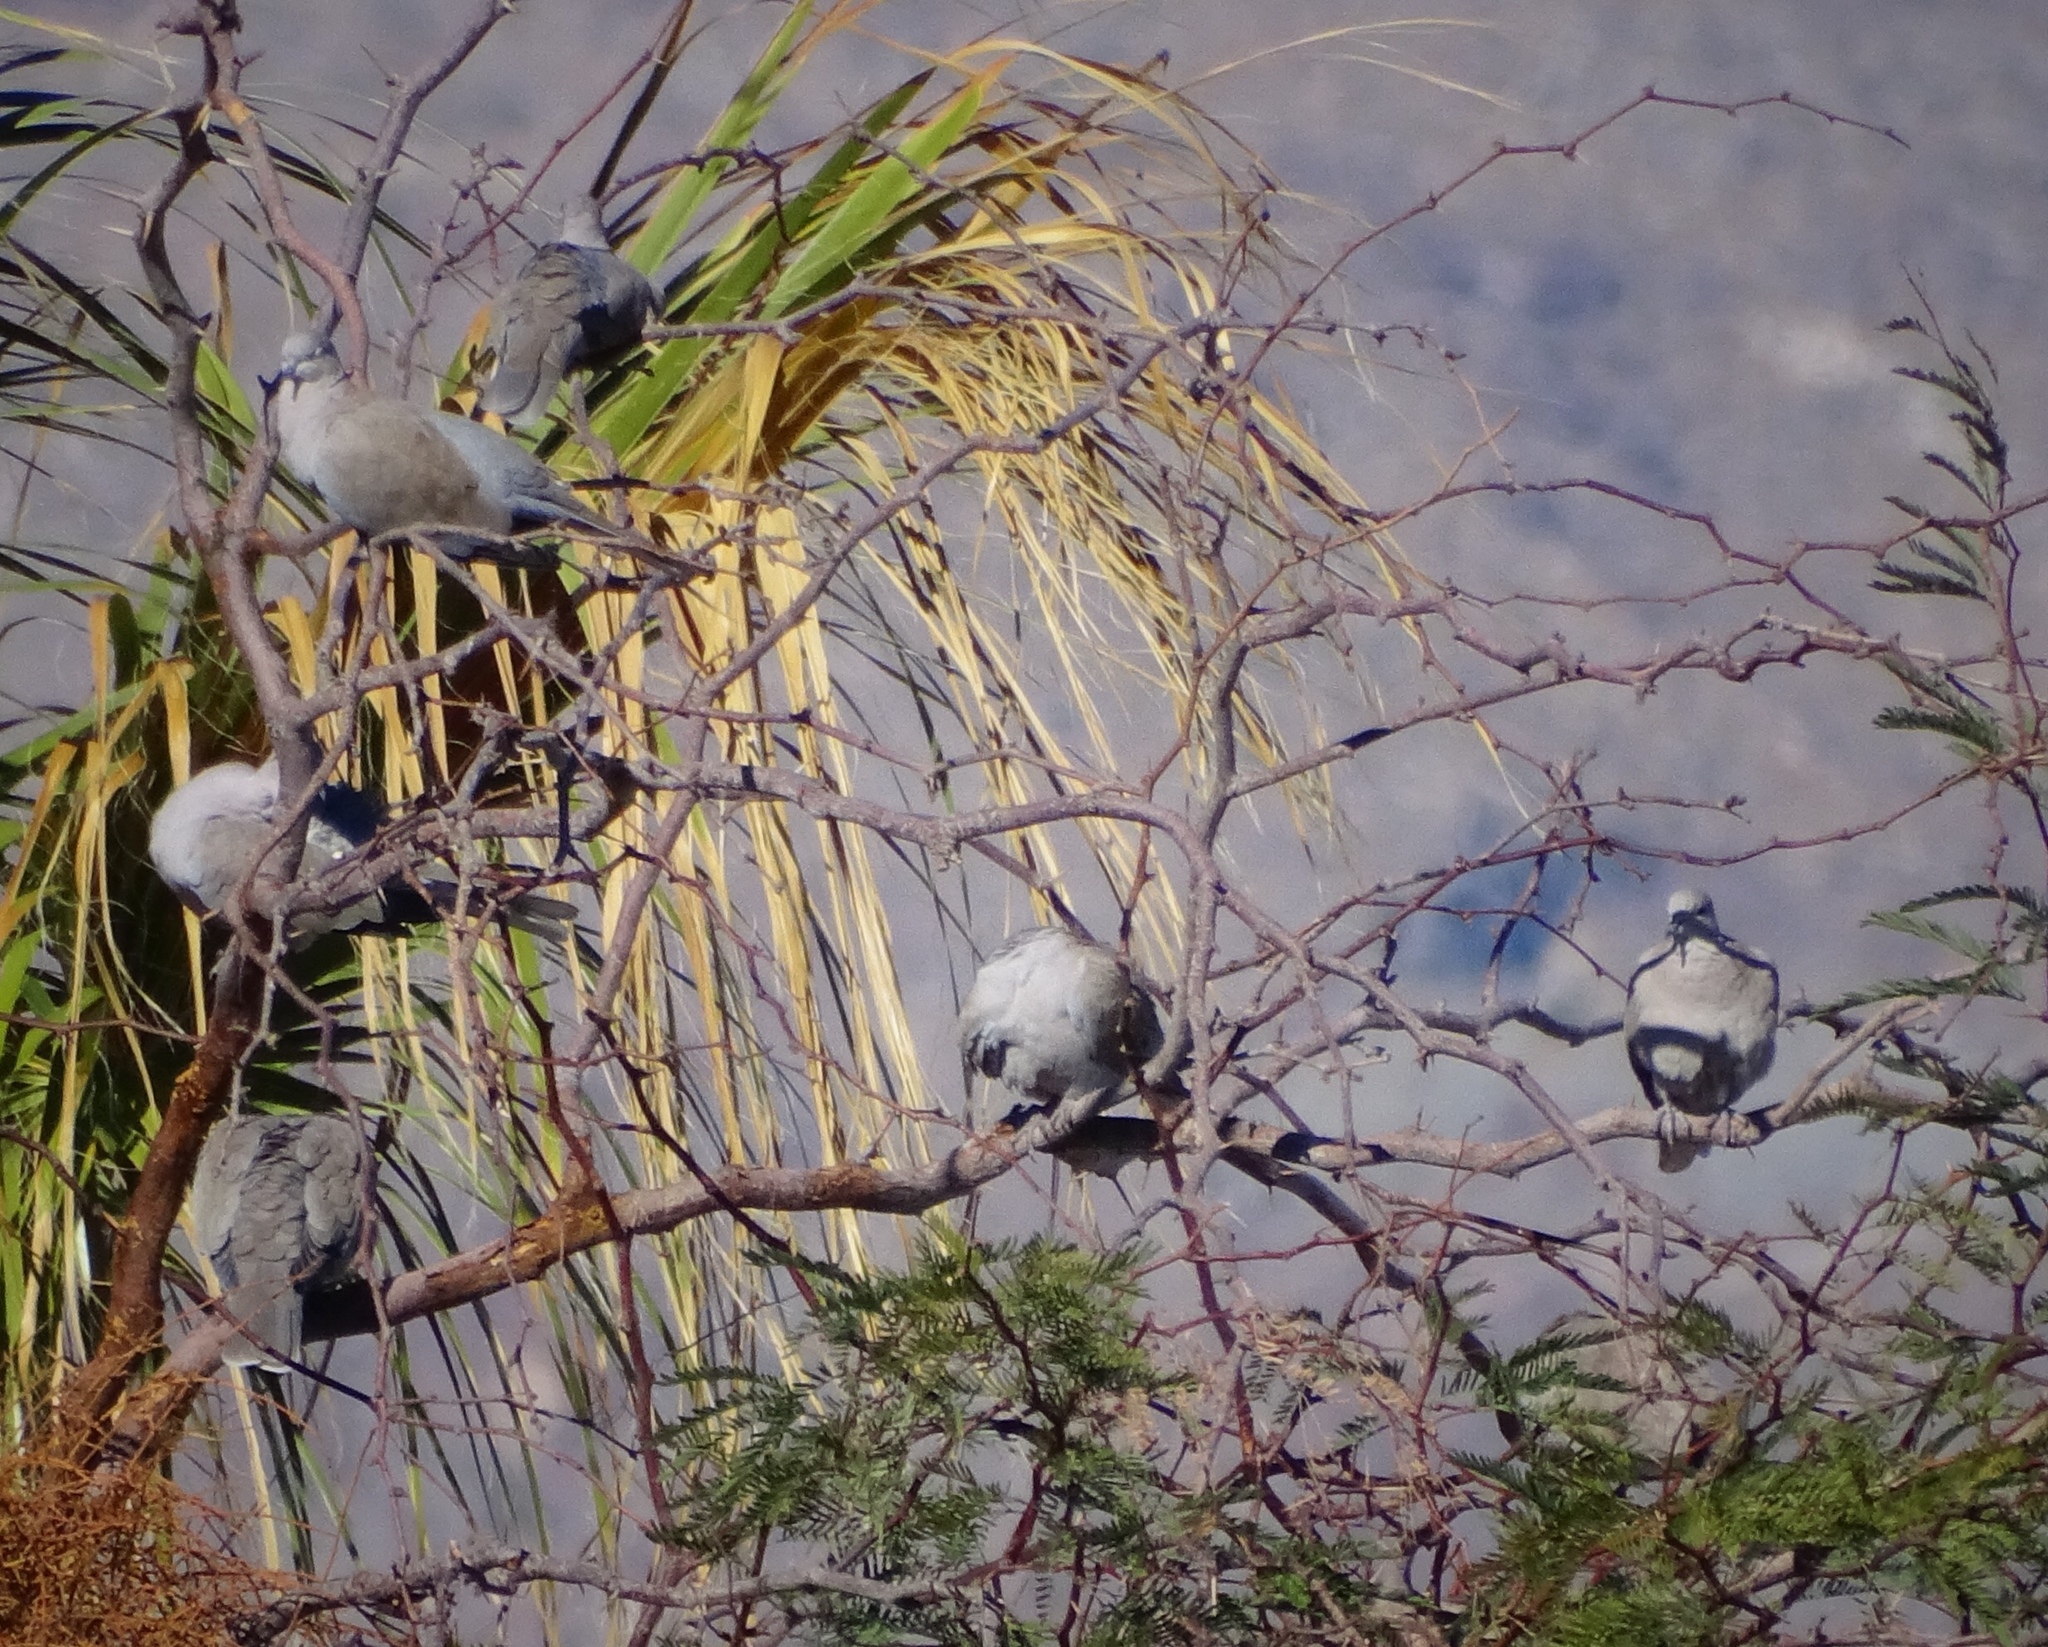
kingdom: Animalia
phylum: Chordata
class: Aves
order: Columbiformes
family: Columbidae
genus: Streptopelia
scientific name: Streptopelia decaocto
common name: Eurasian collared dove
